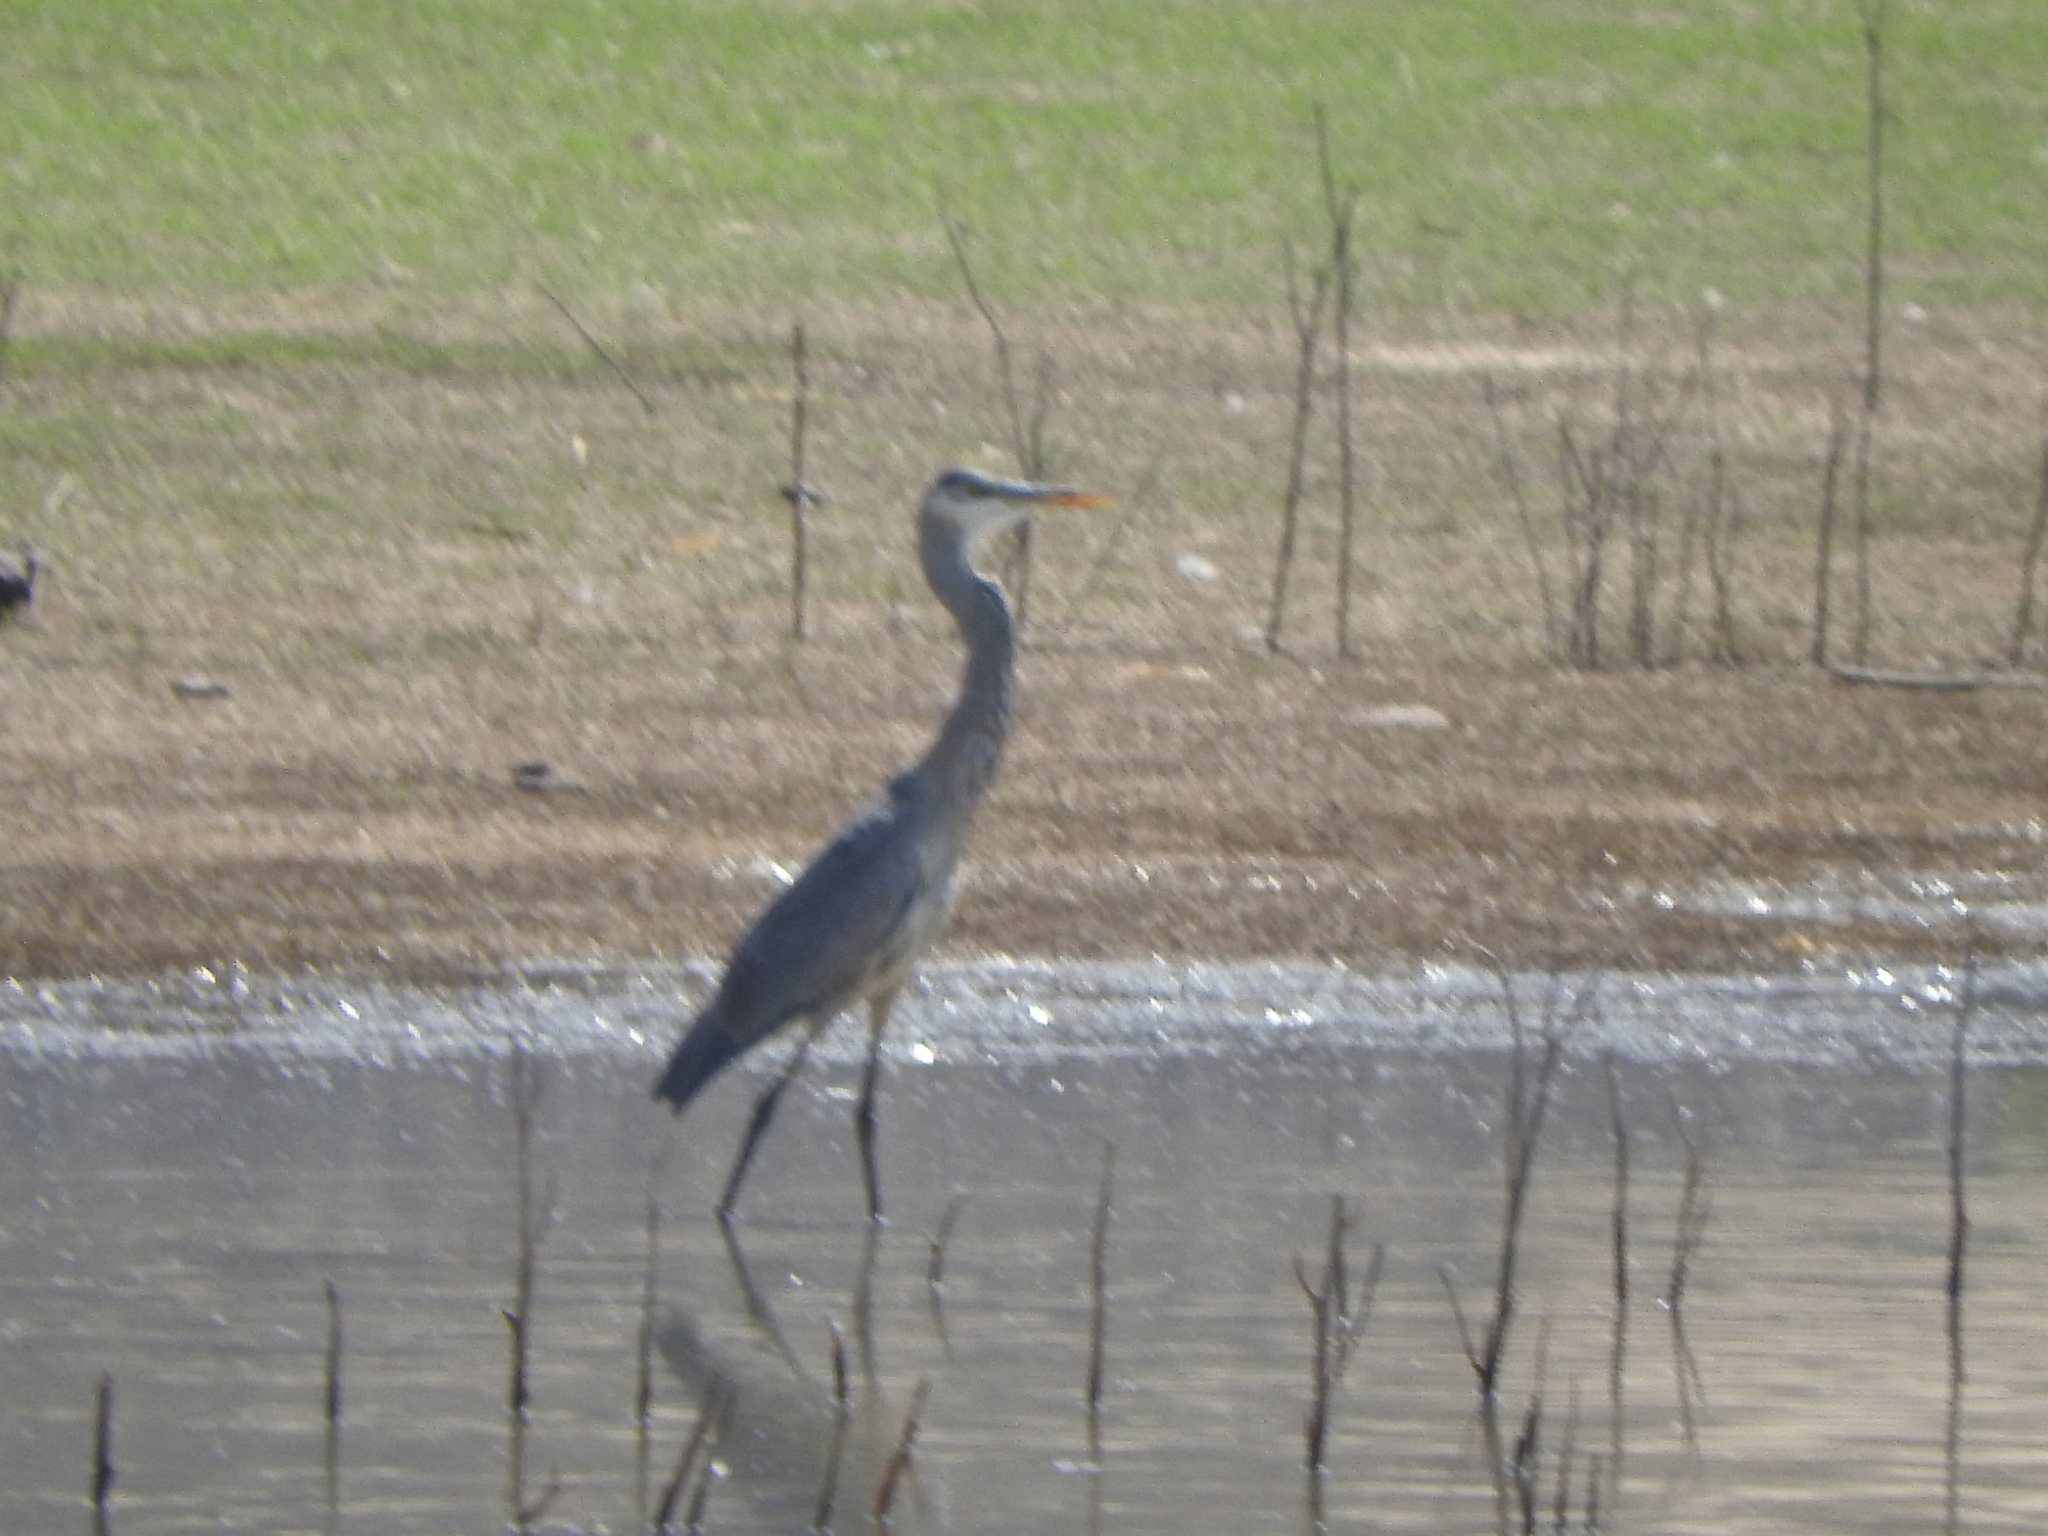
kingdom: Animalia
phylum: Chordata
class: Aves
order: Pelecaniformes
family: Ardeidae
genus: Ardea
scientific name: Ardea herodias
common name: Great blue heron
